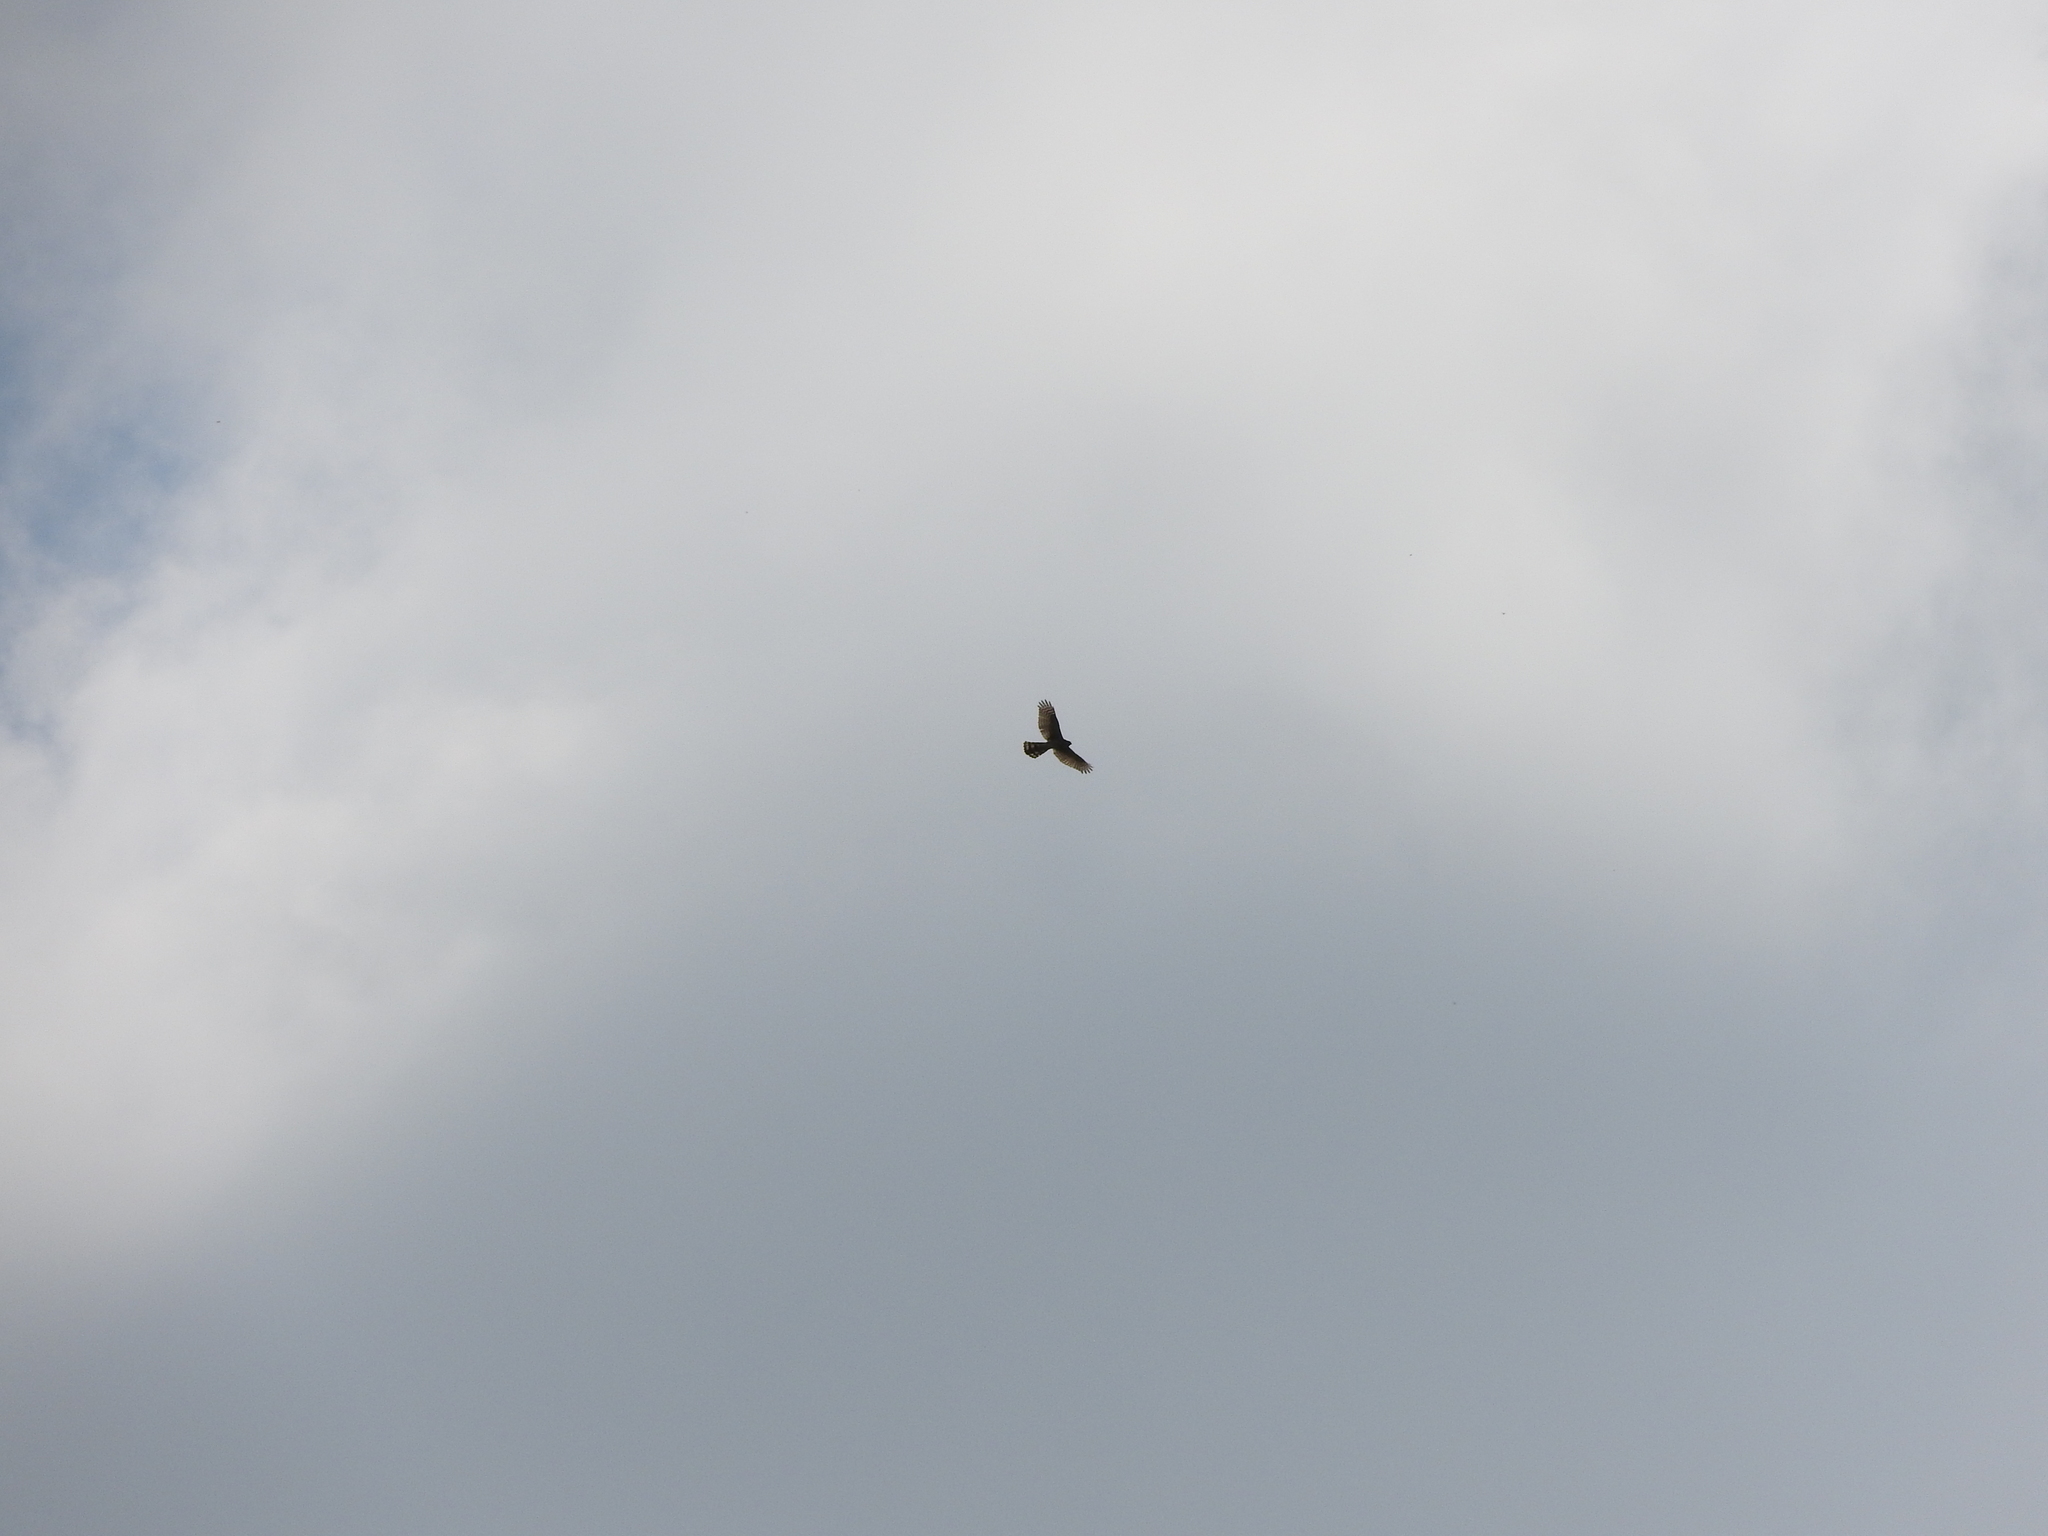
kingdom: Animalia
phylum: Chordata
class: Aves
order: Accipitriformes
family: Accipitridae
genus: Accipiter
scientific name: Accipiter cooperii
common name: Cooper's hawk
